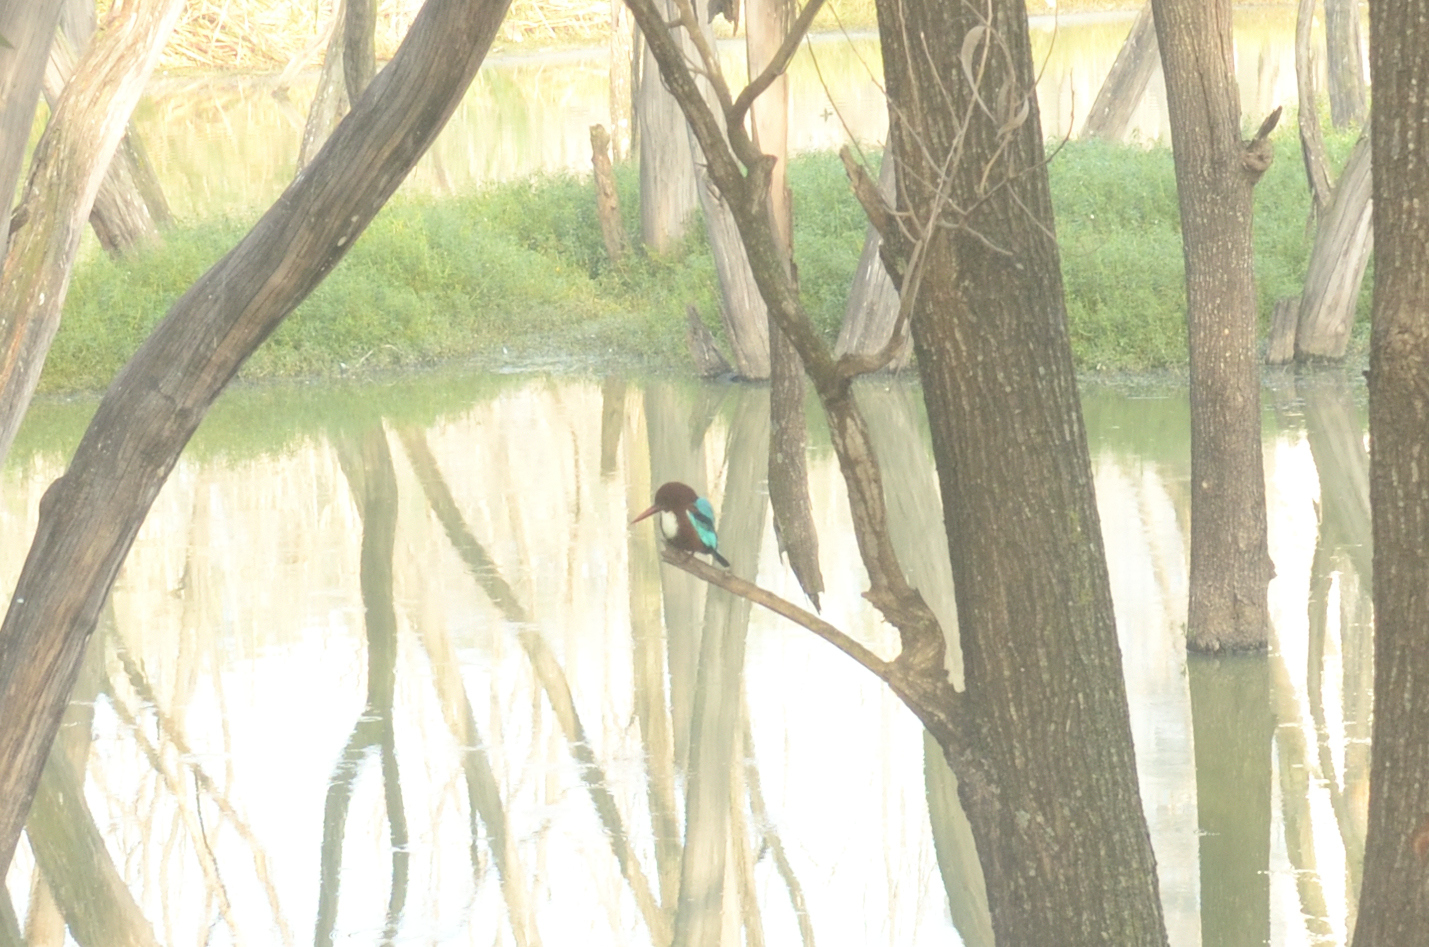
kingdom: Animalia
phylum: Chordata
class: Aves
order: Coraciiformes
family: Alcedinidae
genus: Halcyon
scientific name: Halcyon smyrnensis
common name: White-throated kingfisher
